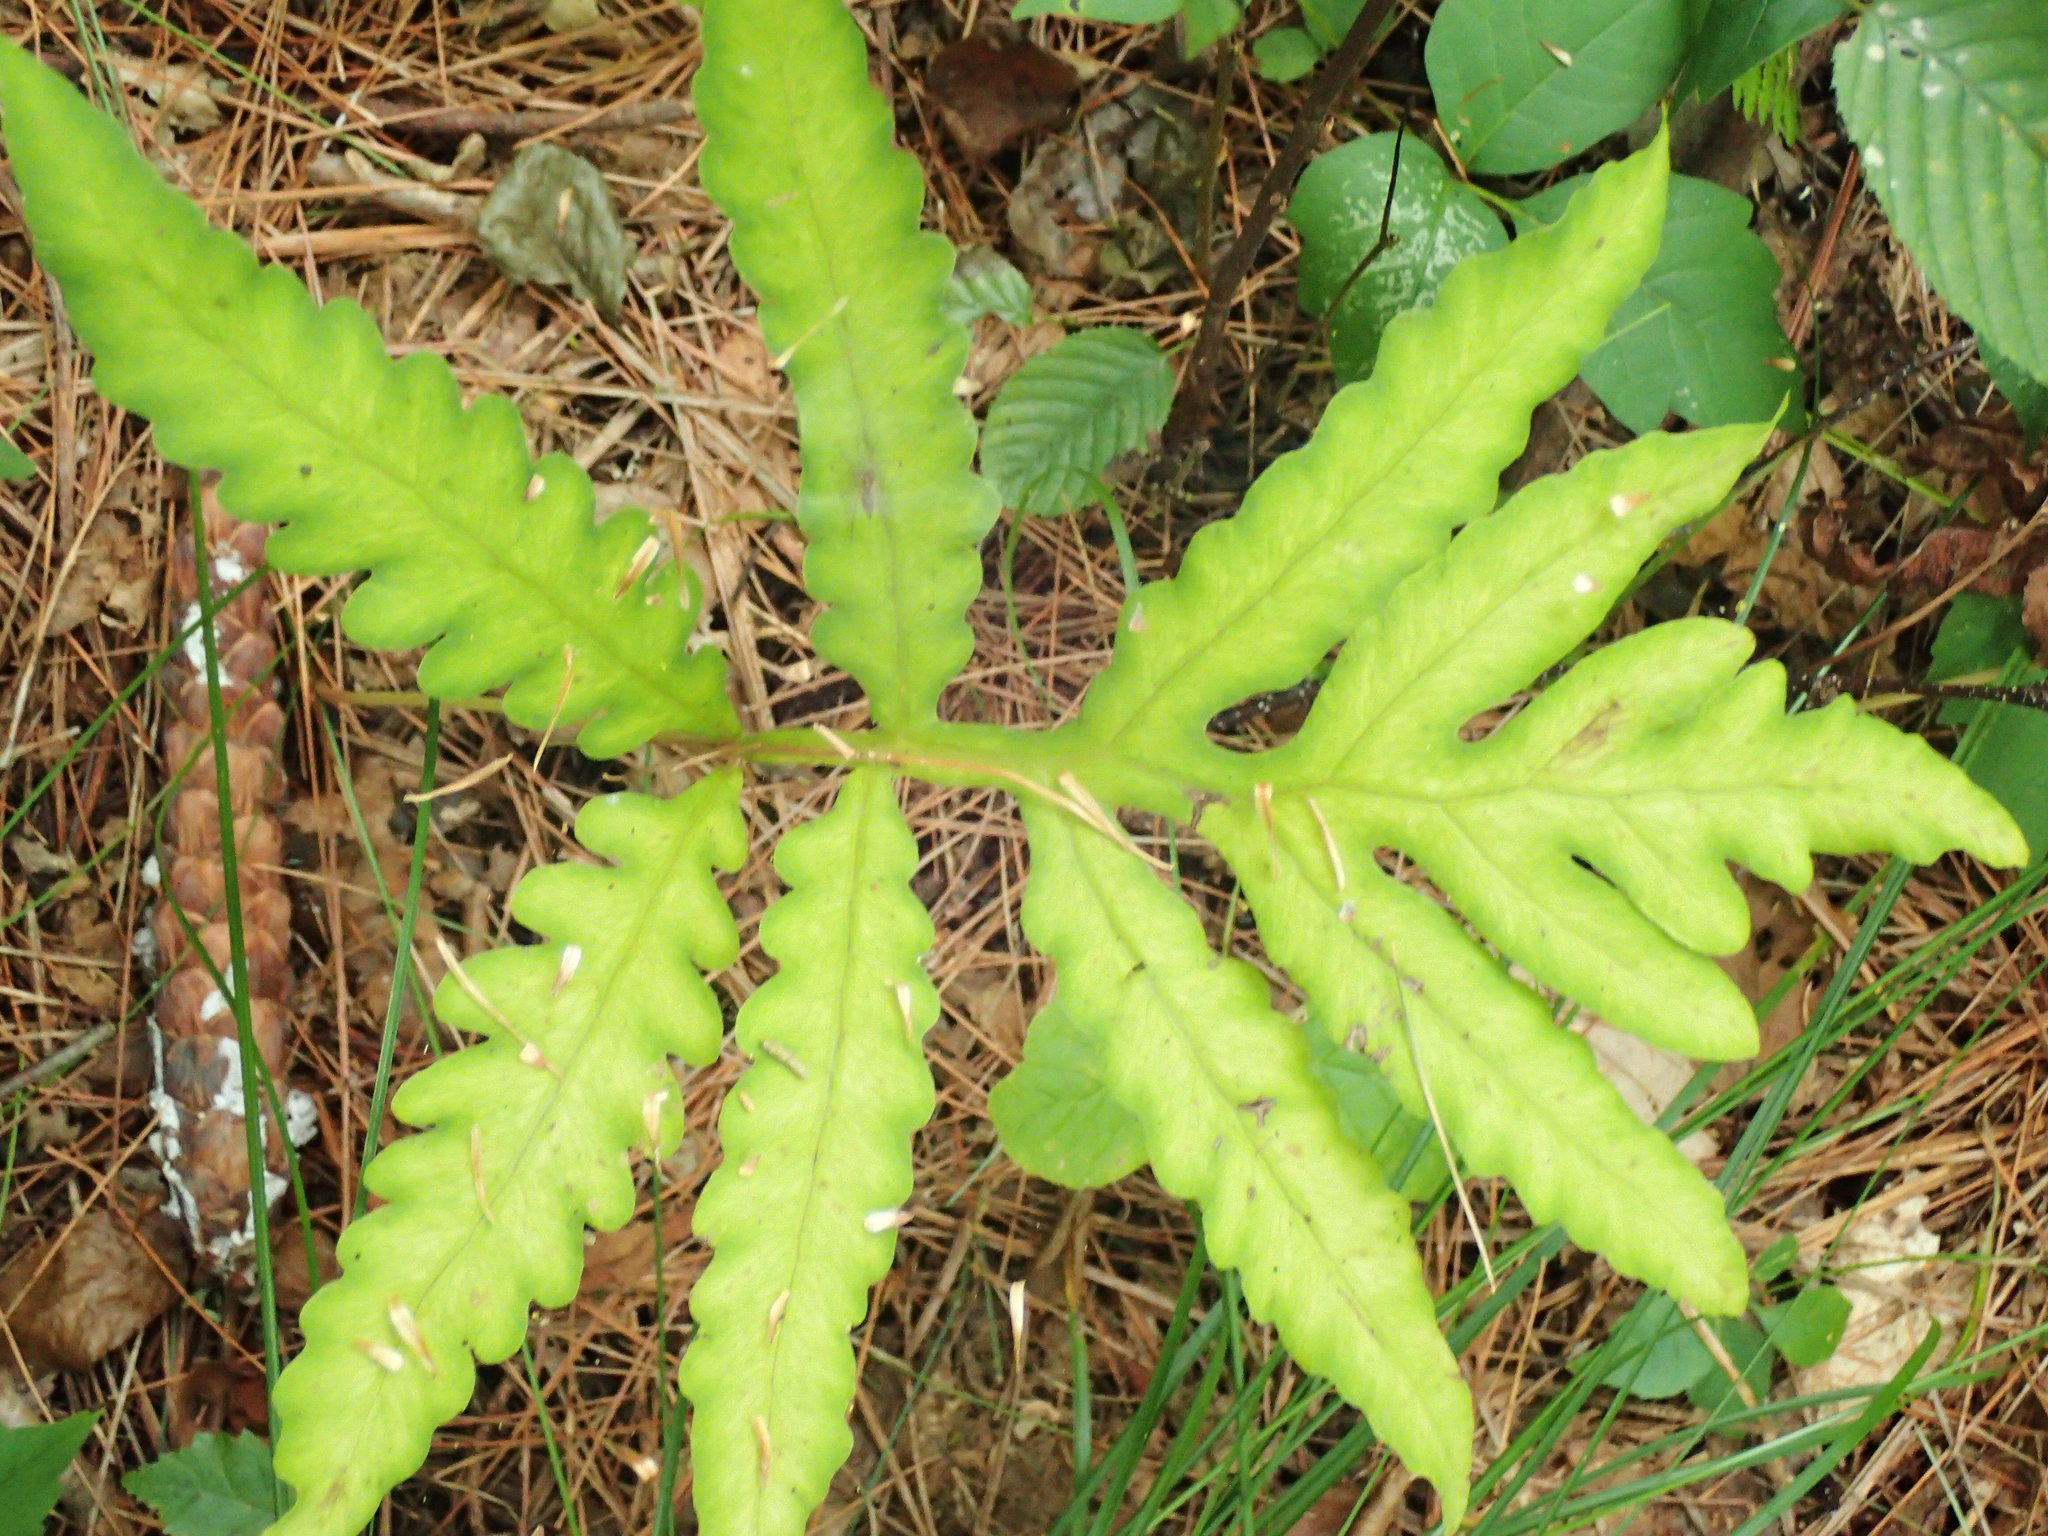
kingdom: Plantae
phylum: Tracheophyta
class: Polypodiopsida
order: Polypodiales
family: Onocleaceae
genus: Onoclea
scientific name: Onoclea sensibilis
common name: Sensitive fern
